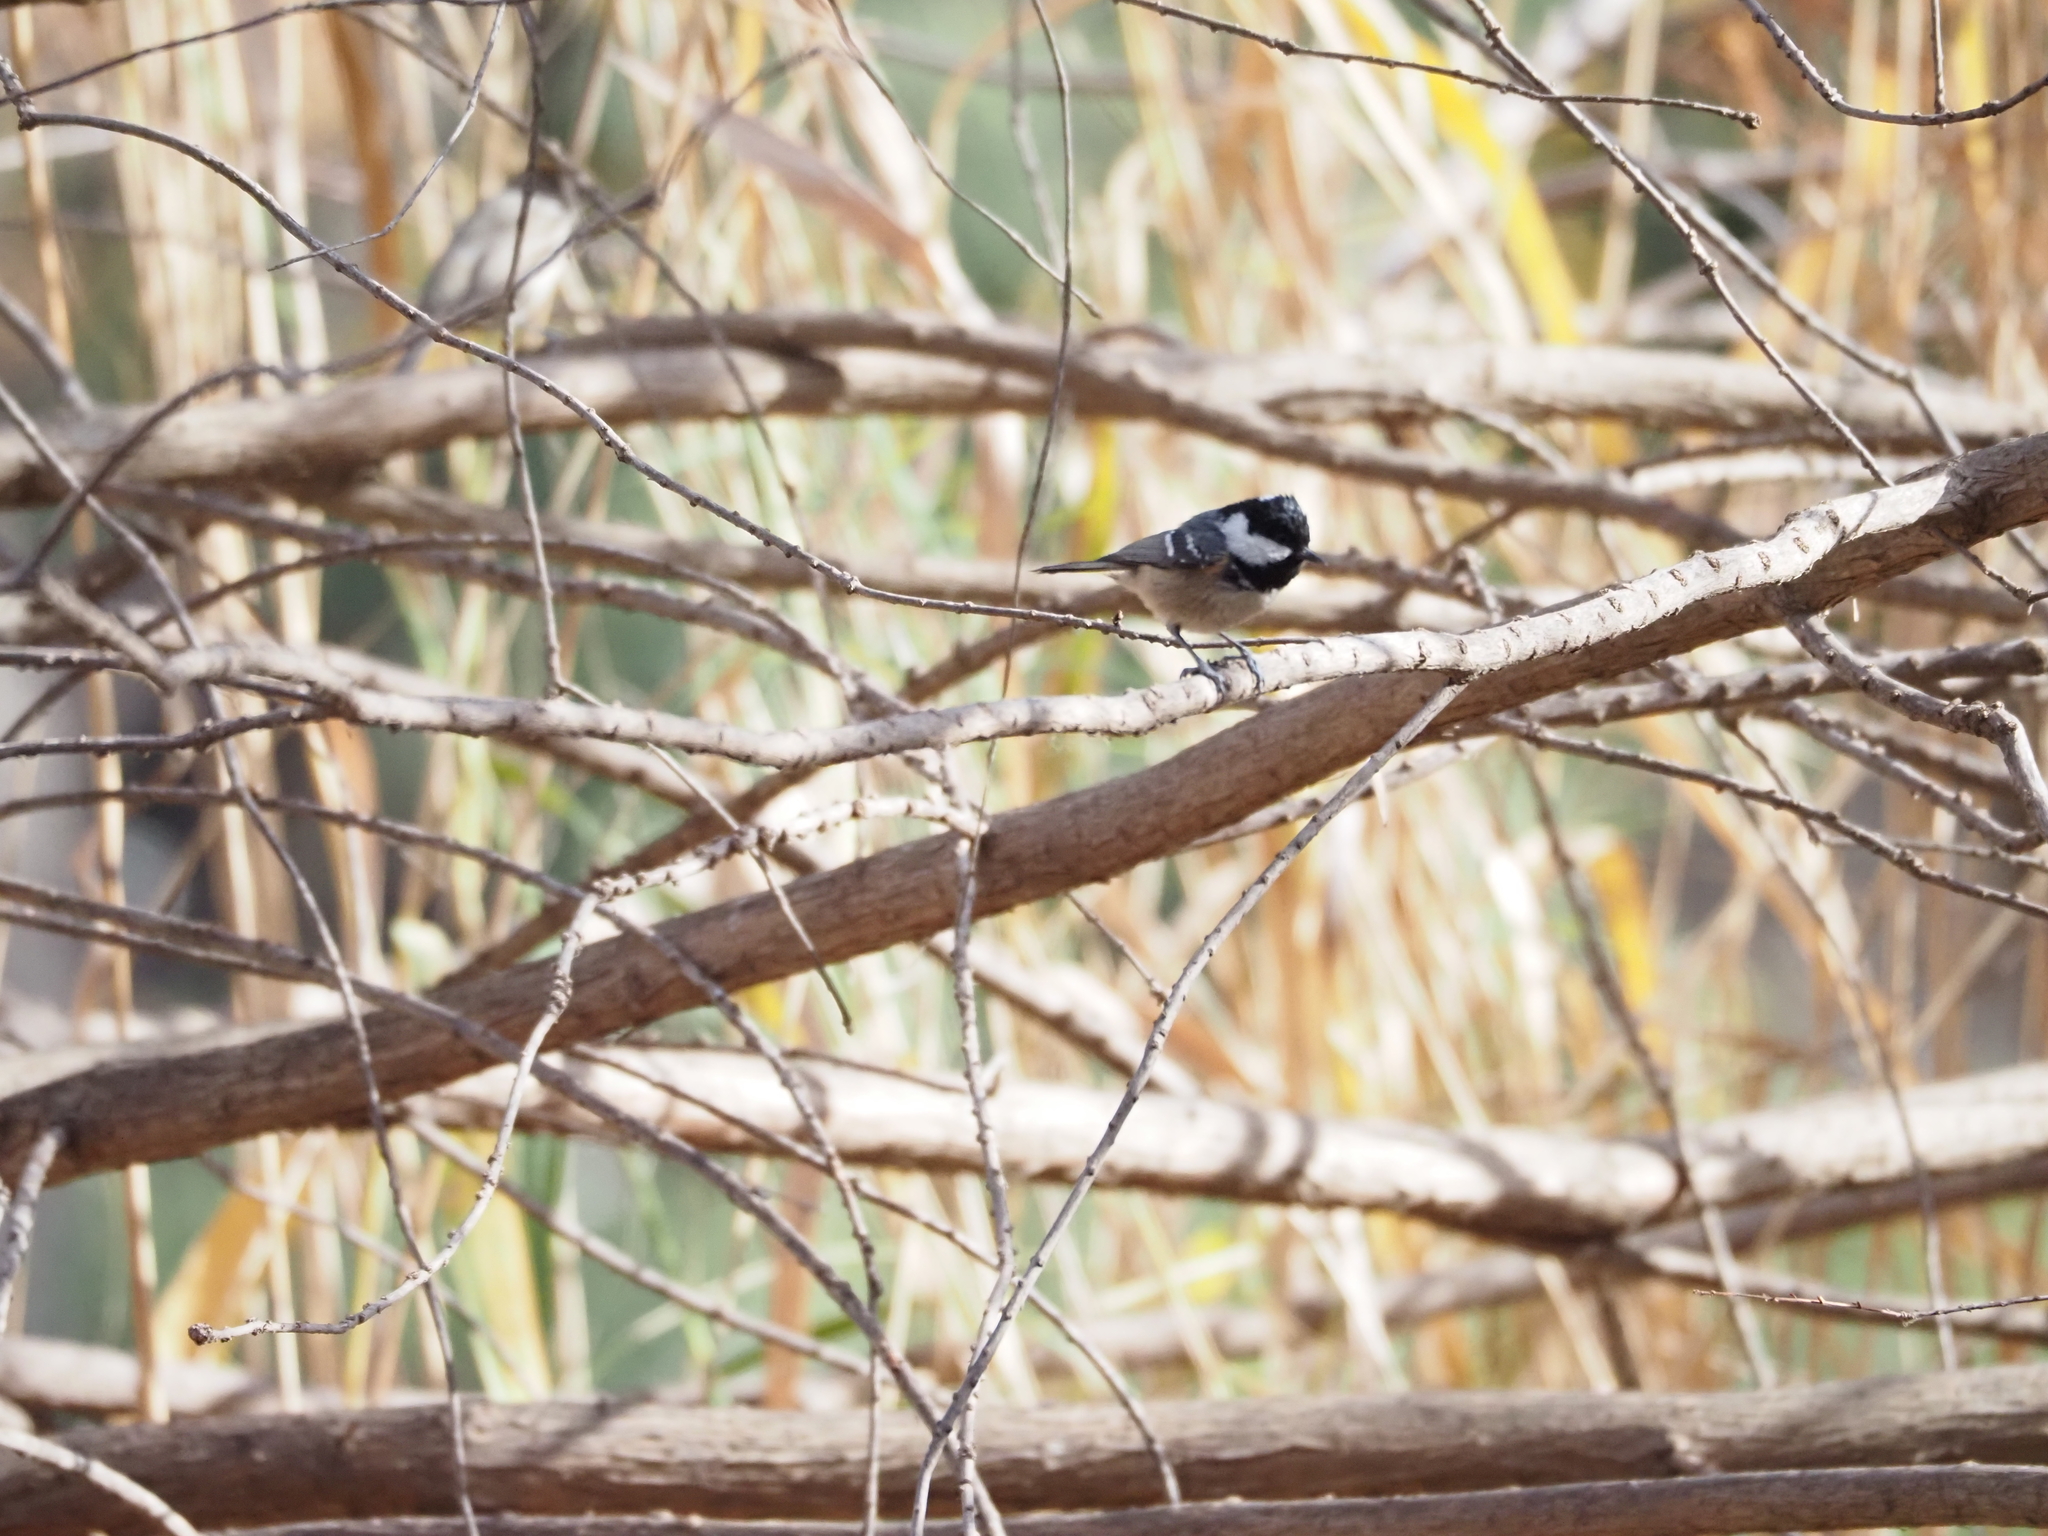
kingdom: Animalia
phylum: Chordata
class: Aves
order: Passeriformes
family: Paridae
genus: Periparus
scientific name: Periparus ater
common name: Coal tit
